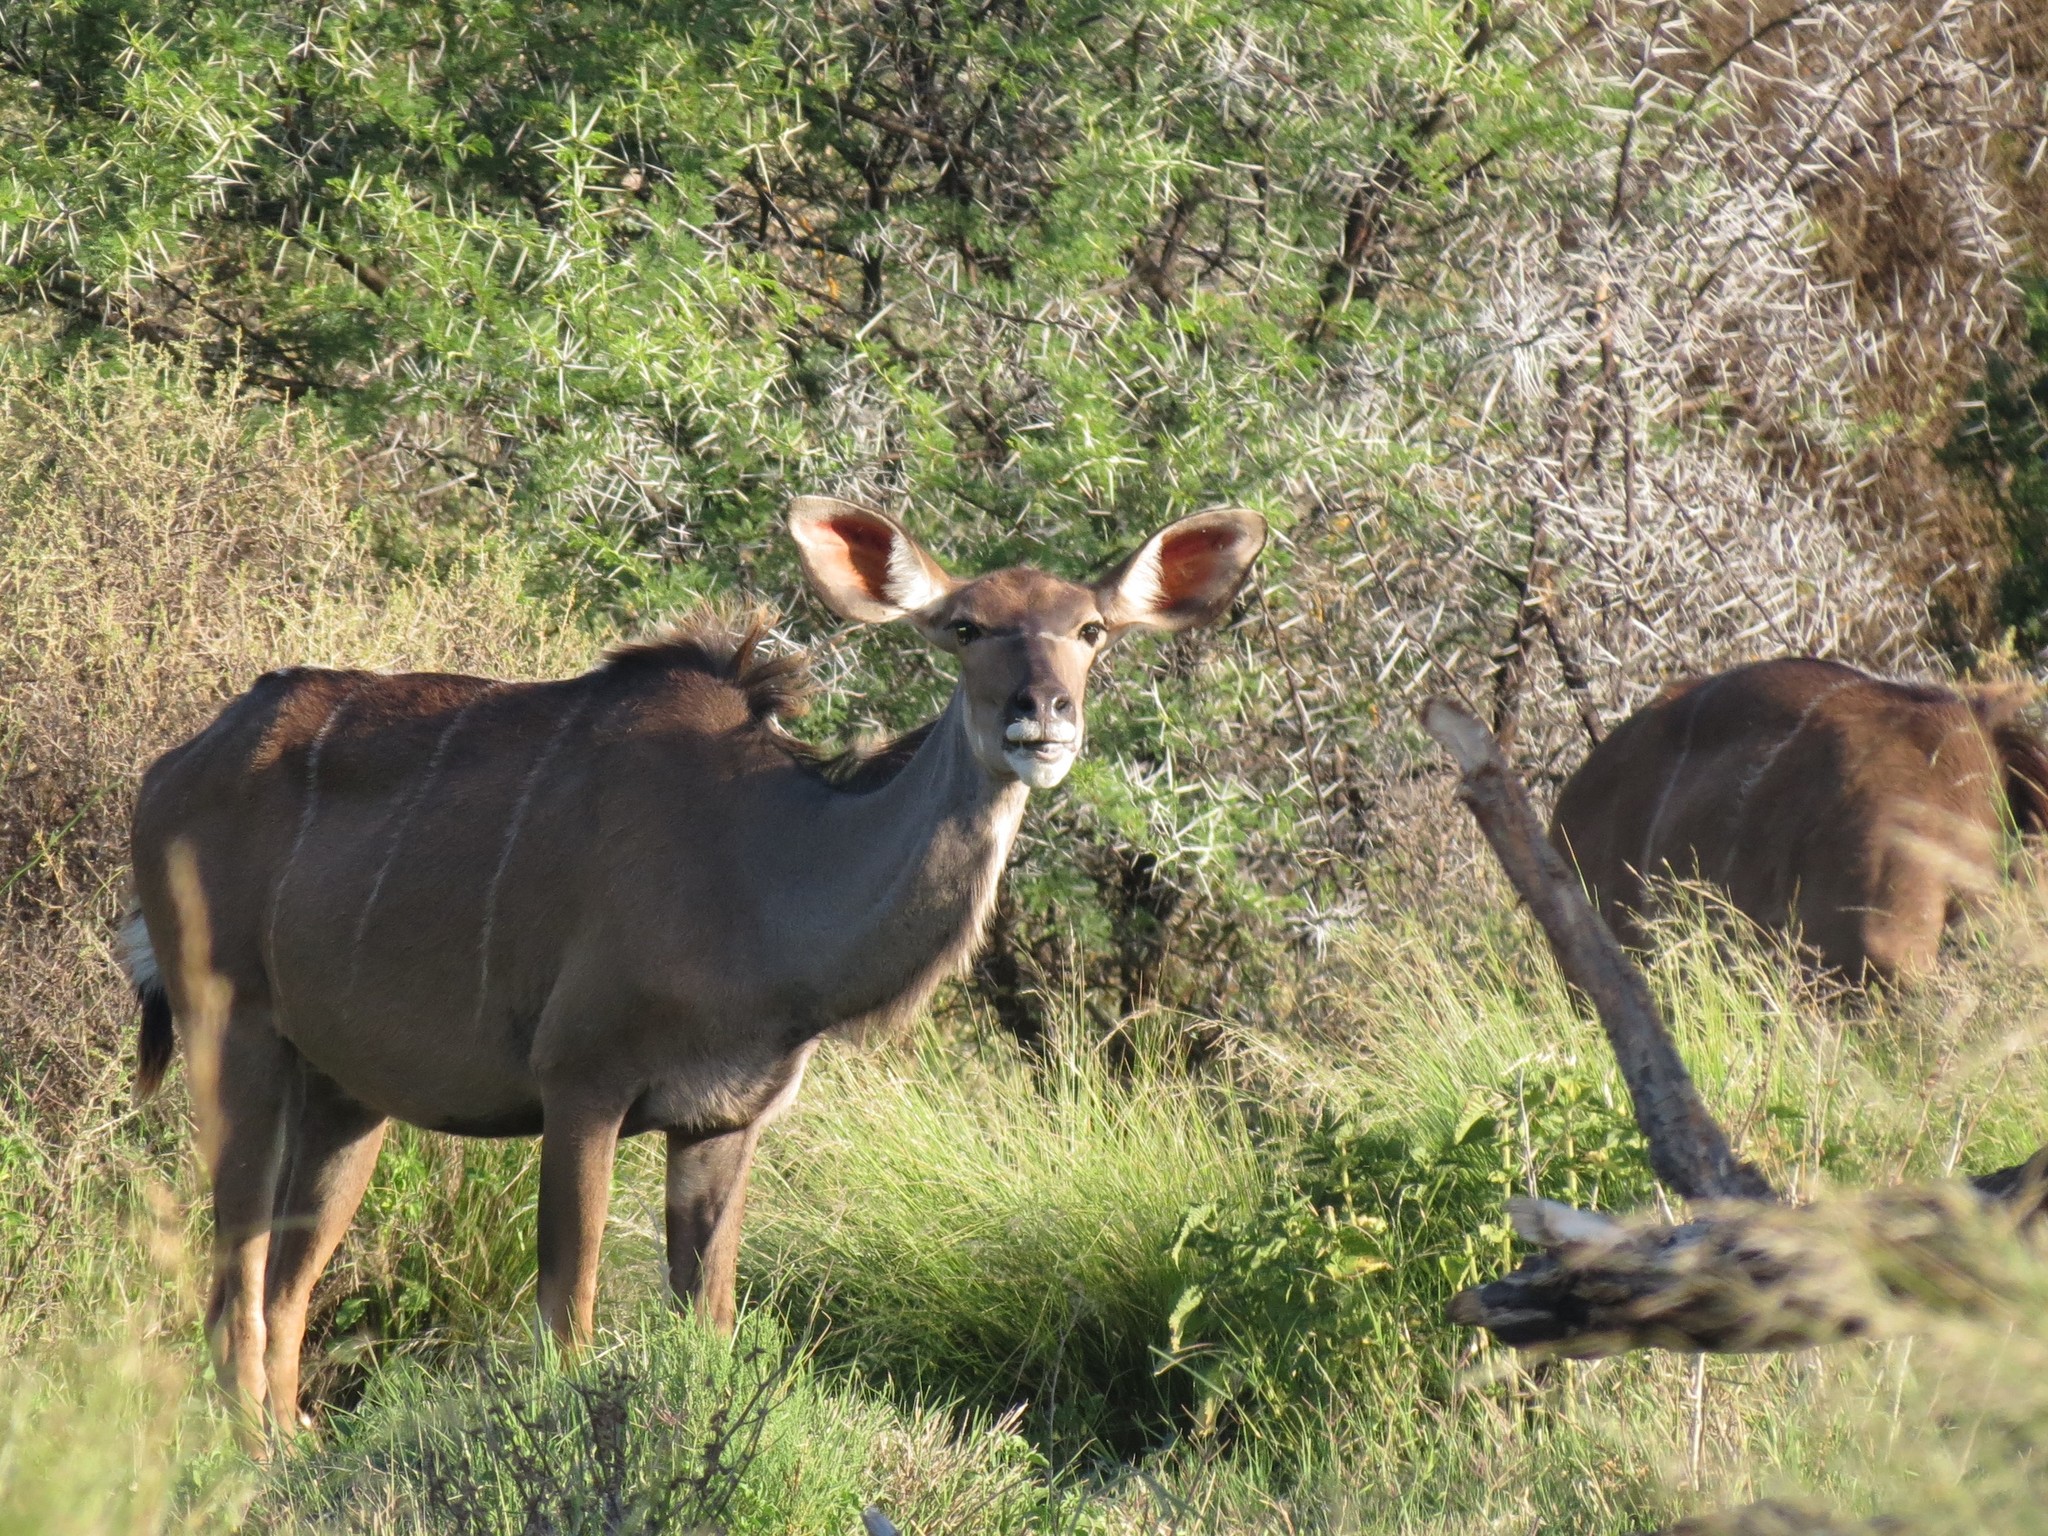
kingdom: Animalia
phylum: Chordata
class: Mammalia
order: Artiodactyla
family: Bovidae
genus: Tragelaphus
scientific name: Tragelaphus strepsiceros
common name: Greater kudu
